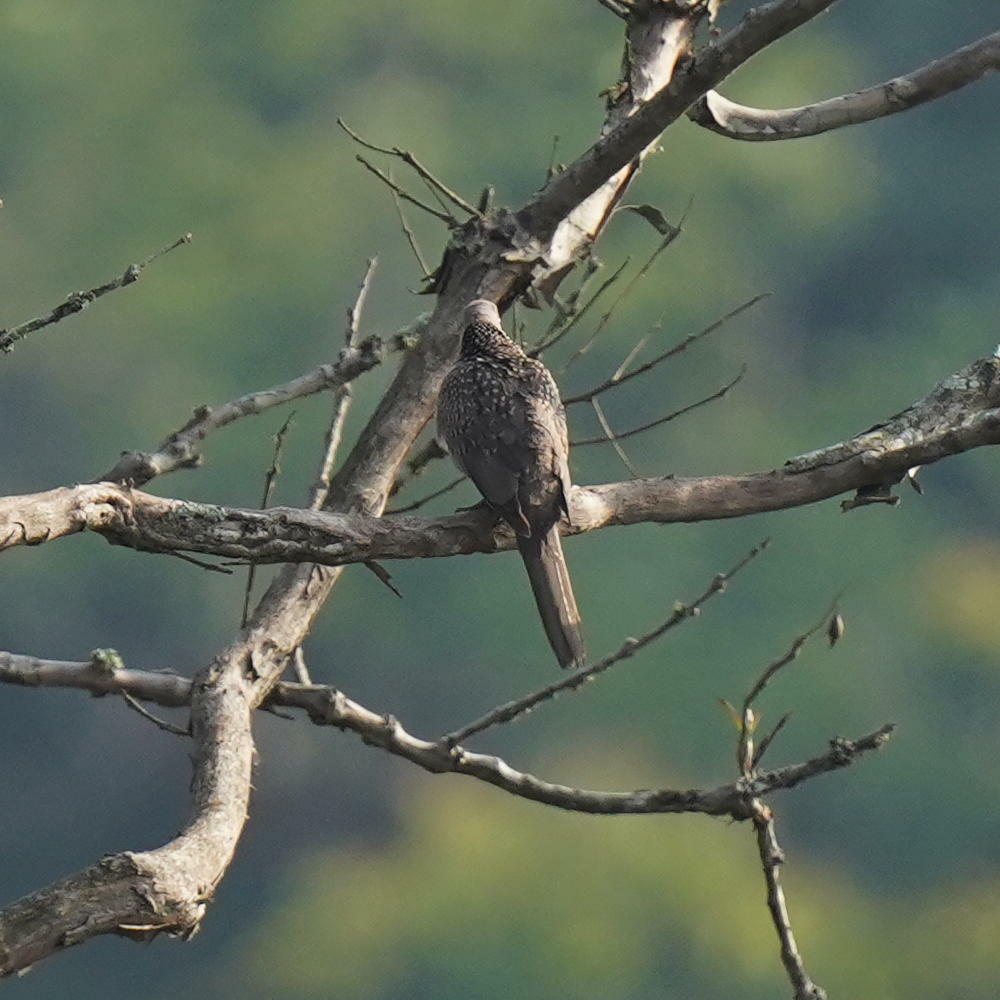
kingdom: Animalia
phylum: Chordata
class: Aves
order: Columbiformes
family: Columbidae
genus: Spilopelia
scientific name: Spilopelia chinensis
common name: Spotted dove
